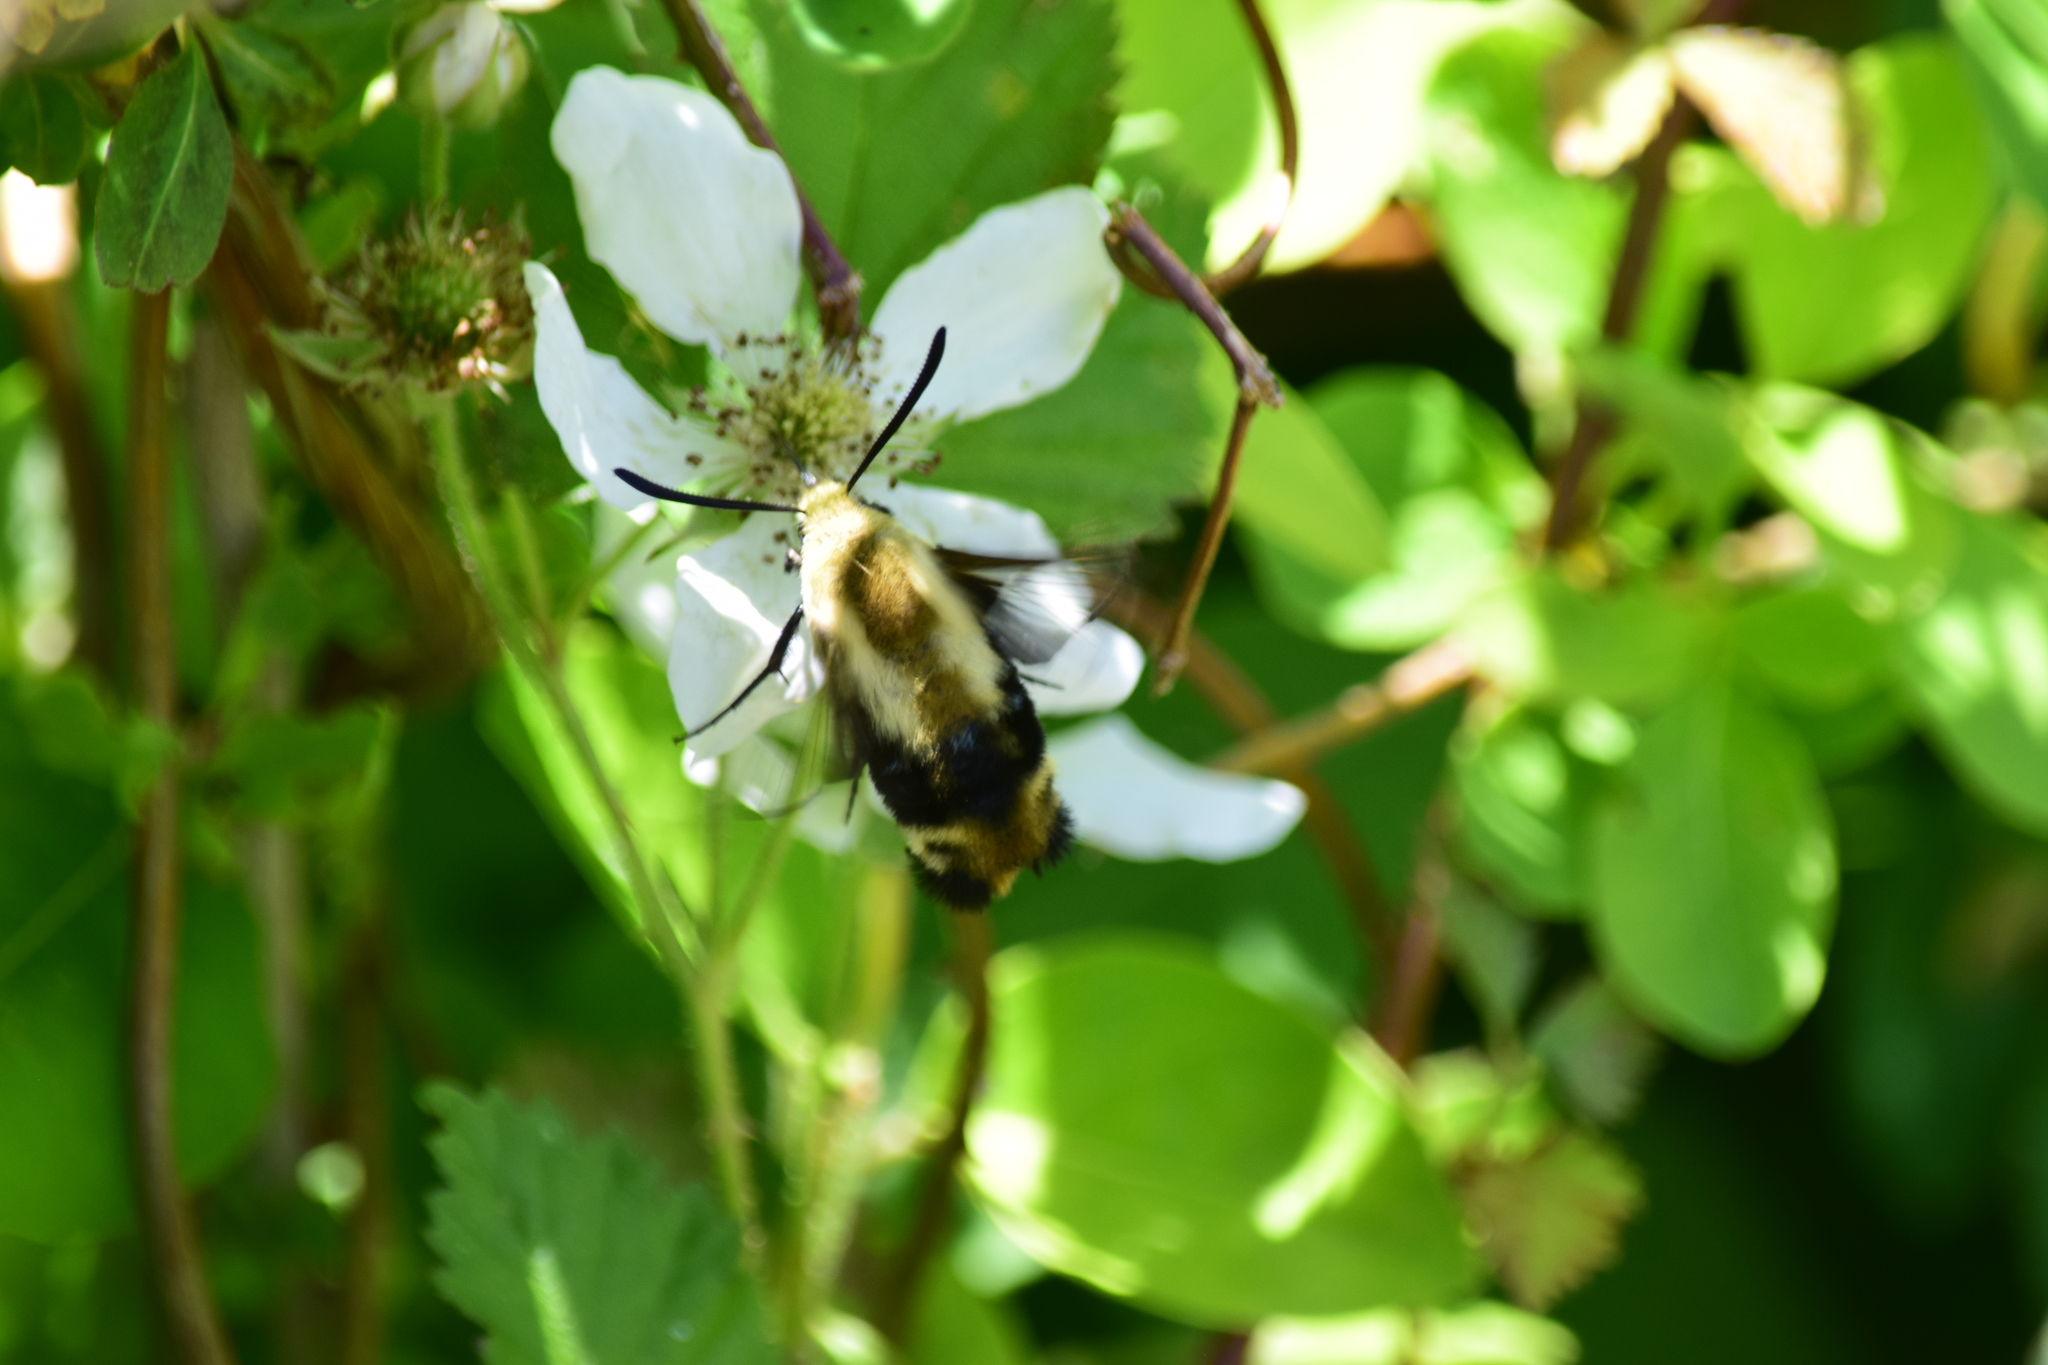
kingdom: Animalia
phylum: Arthropoda
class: Insecta
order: Lepidoptera
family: Sphingidae
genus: Hemaris
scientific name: Hemaris diffinis
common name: Bumblebee moth
